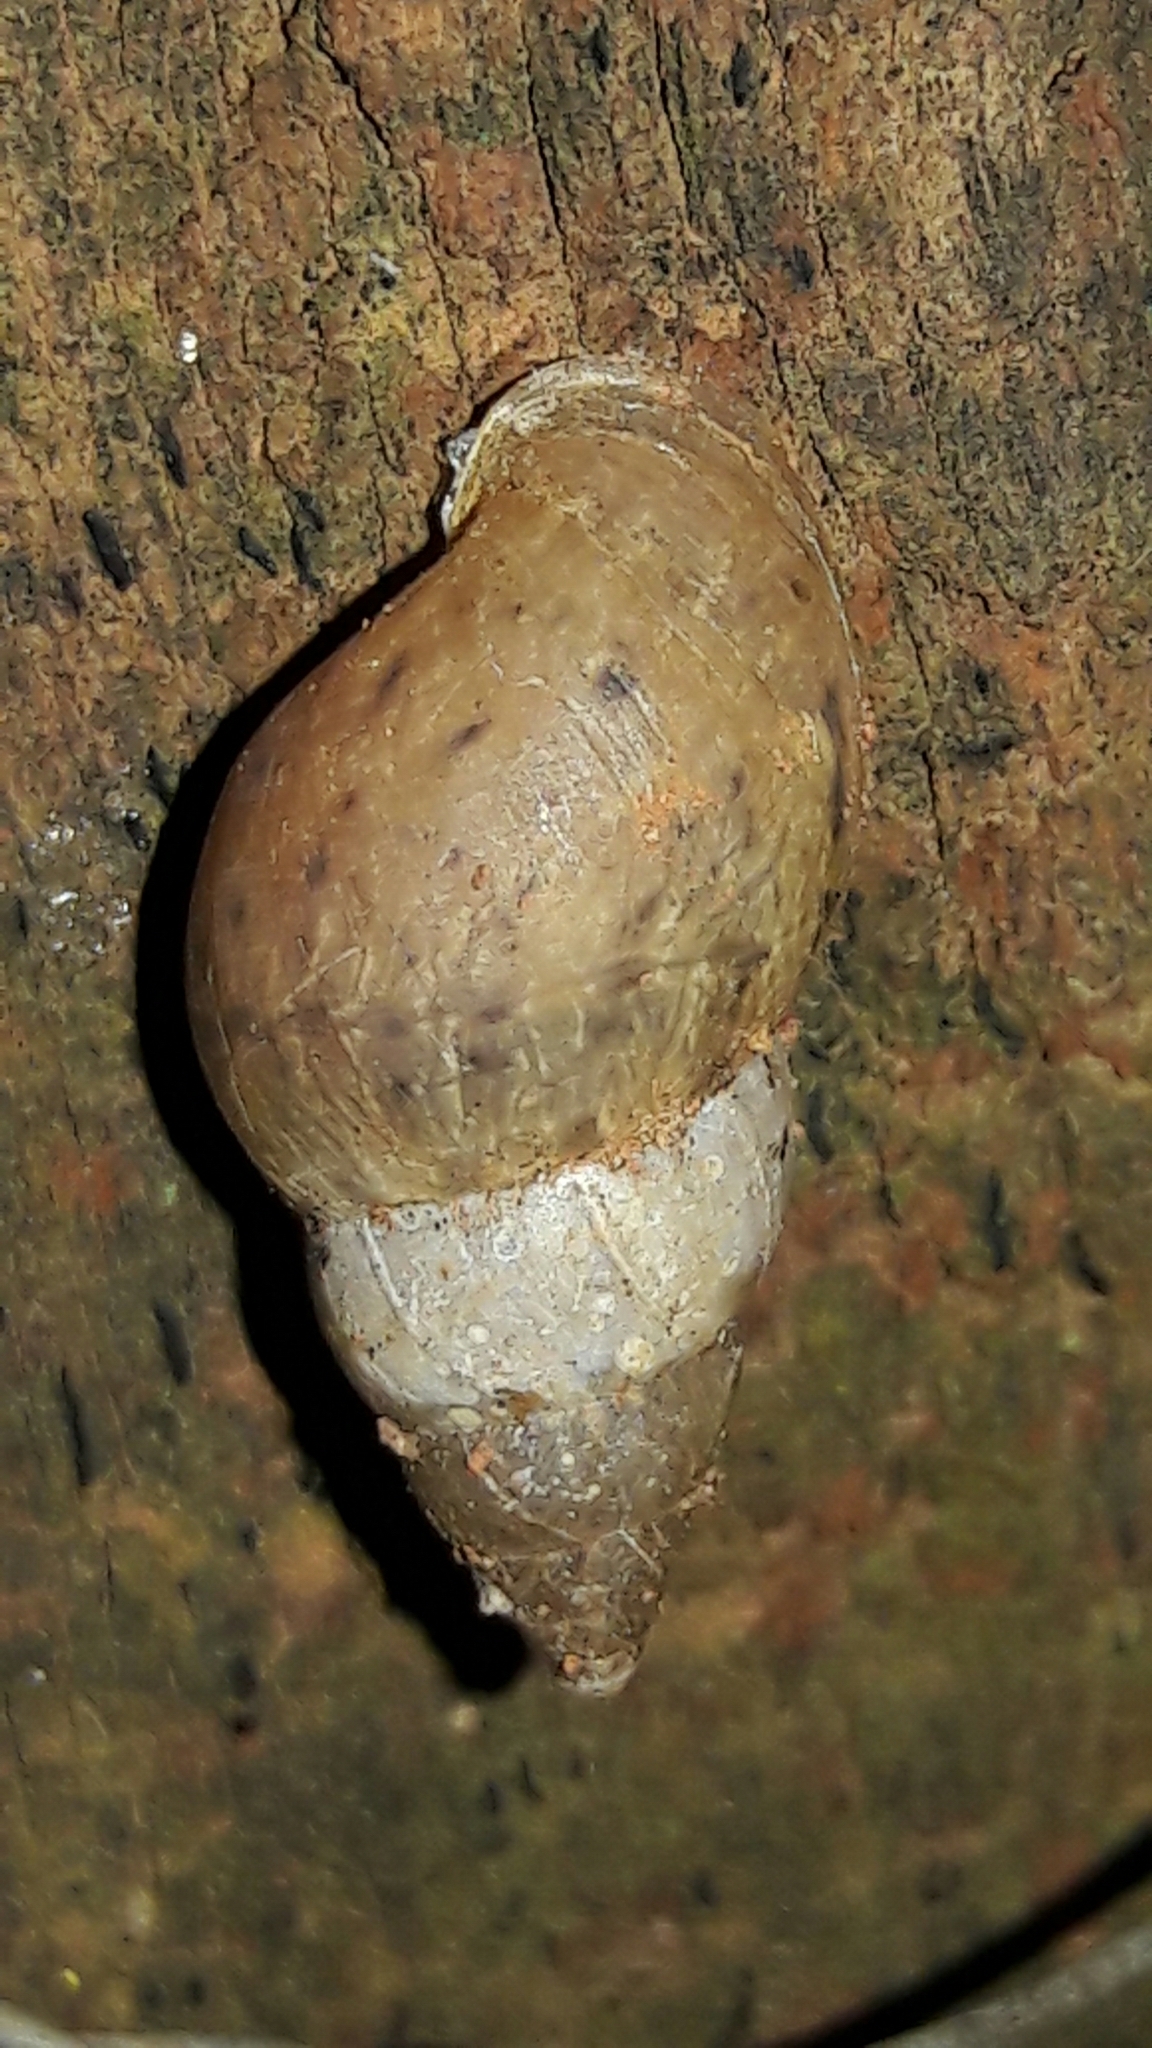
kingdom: Animalia
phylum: Mollusca
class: Gastropoda
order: Stylommatophora
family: Bulimulidae
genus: Bulimulus
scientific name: Bulimulus tenuissimus
